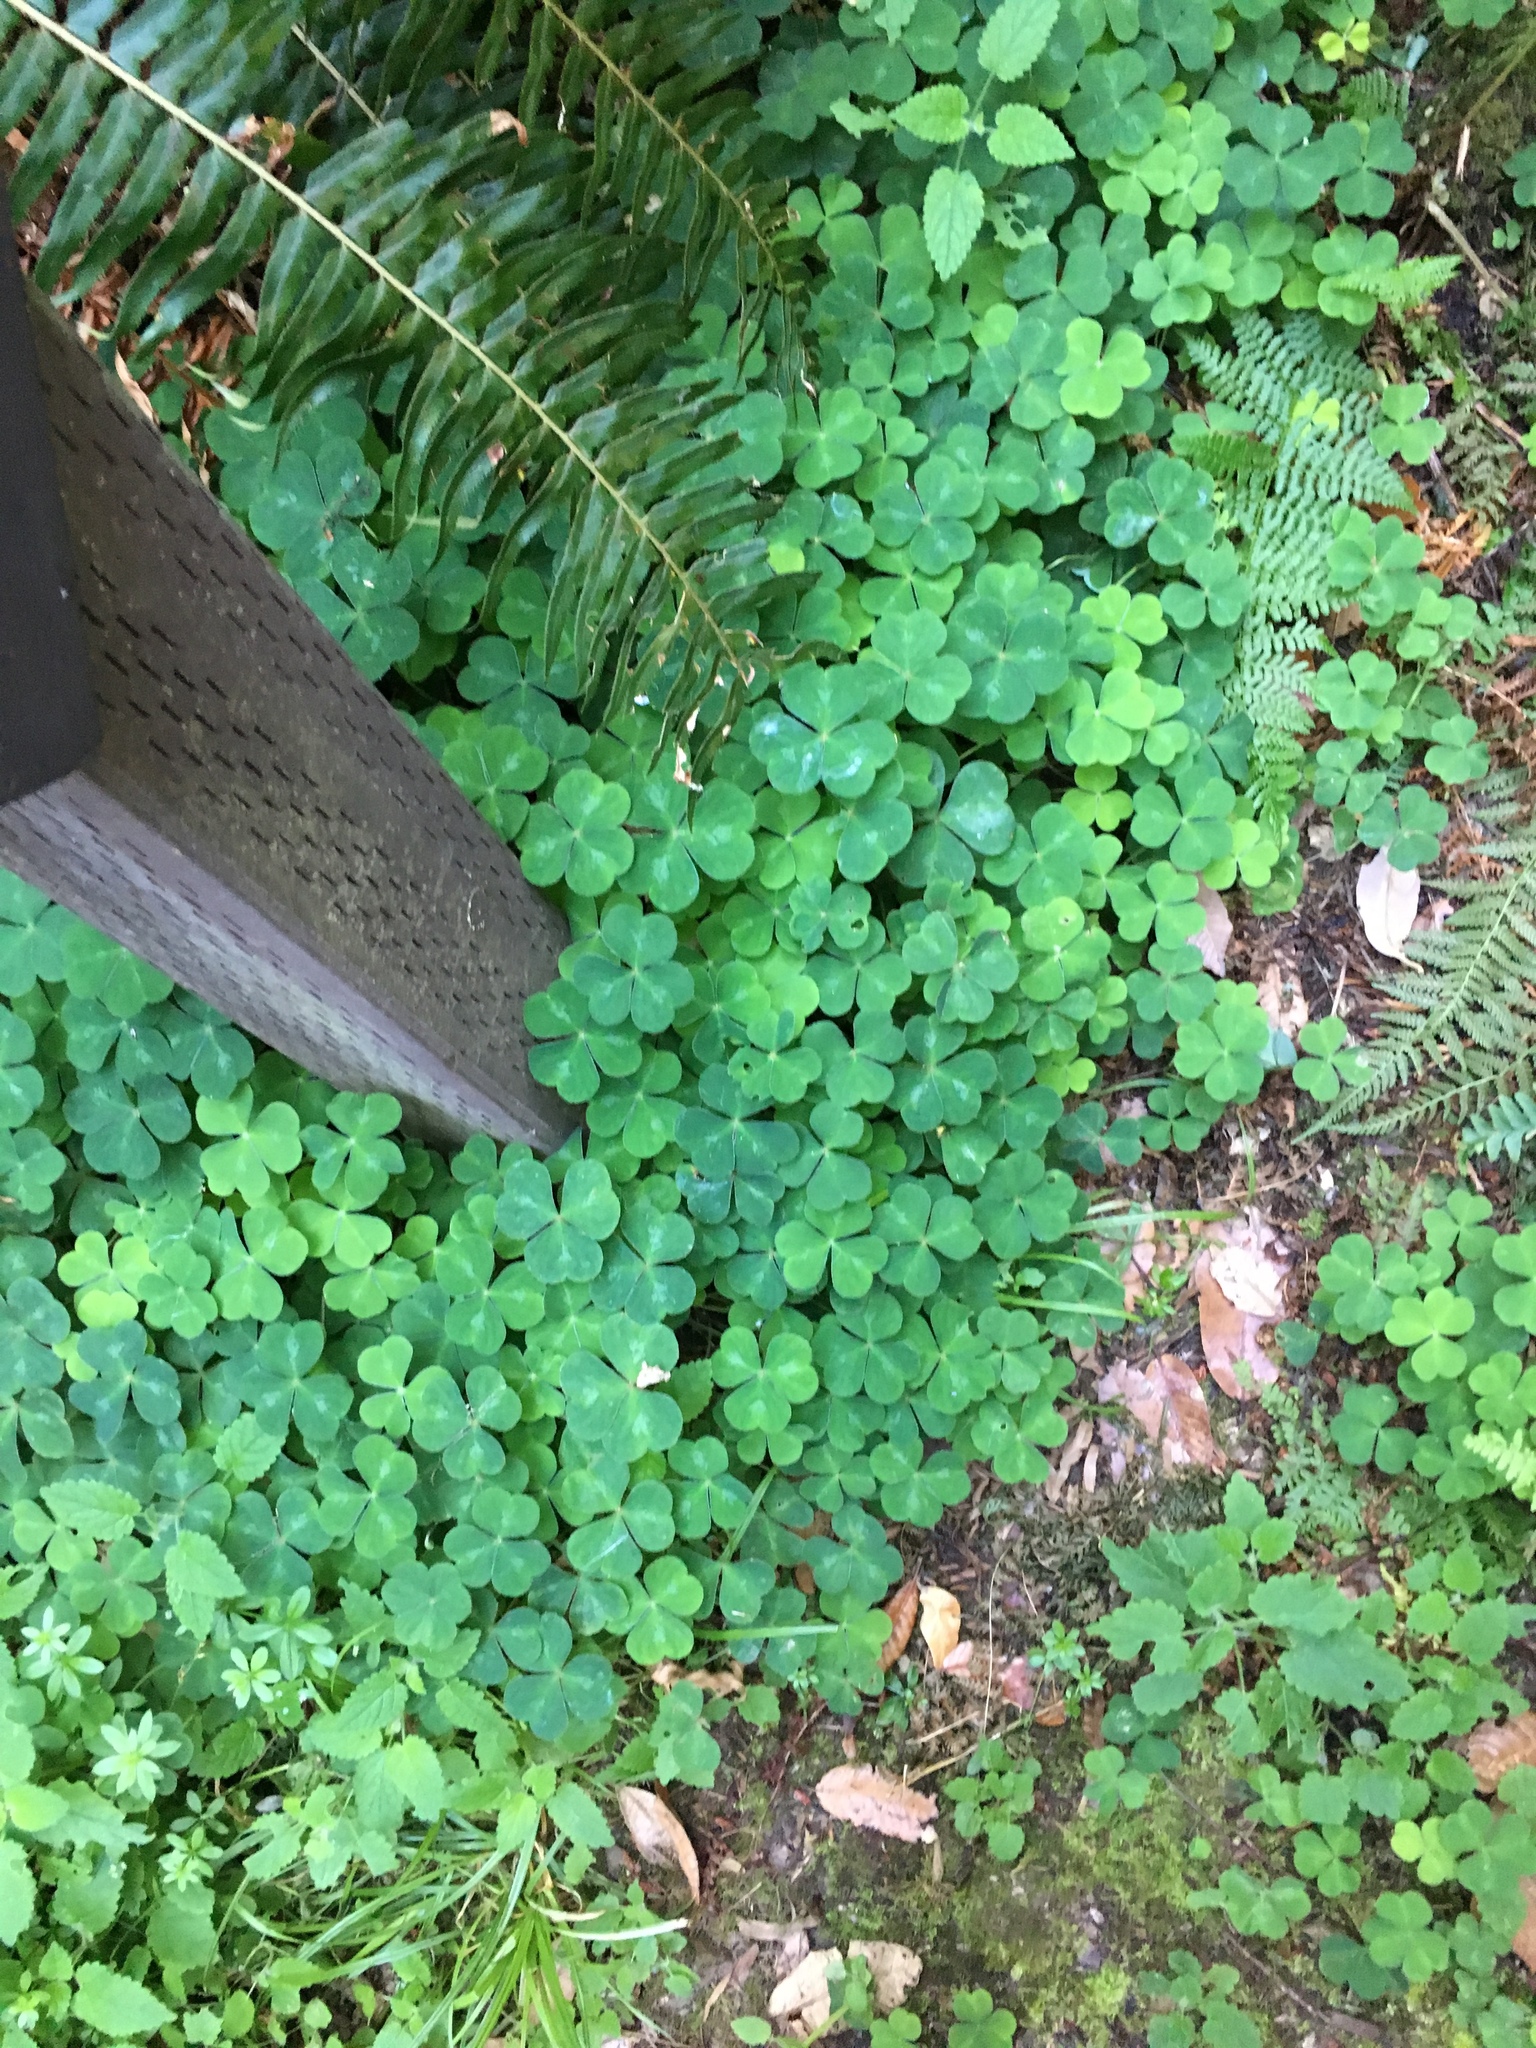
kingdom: Plantae
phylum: Tracheophyta
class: Magnoliopsida
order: Oxalidales
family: Oxalidaceae
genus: Oxalis
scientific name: Oxalis oregana
